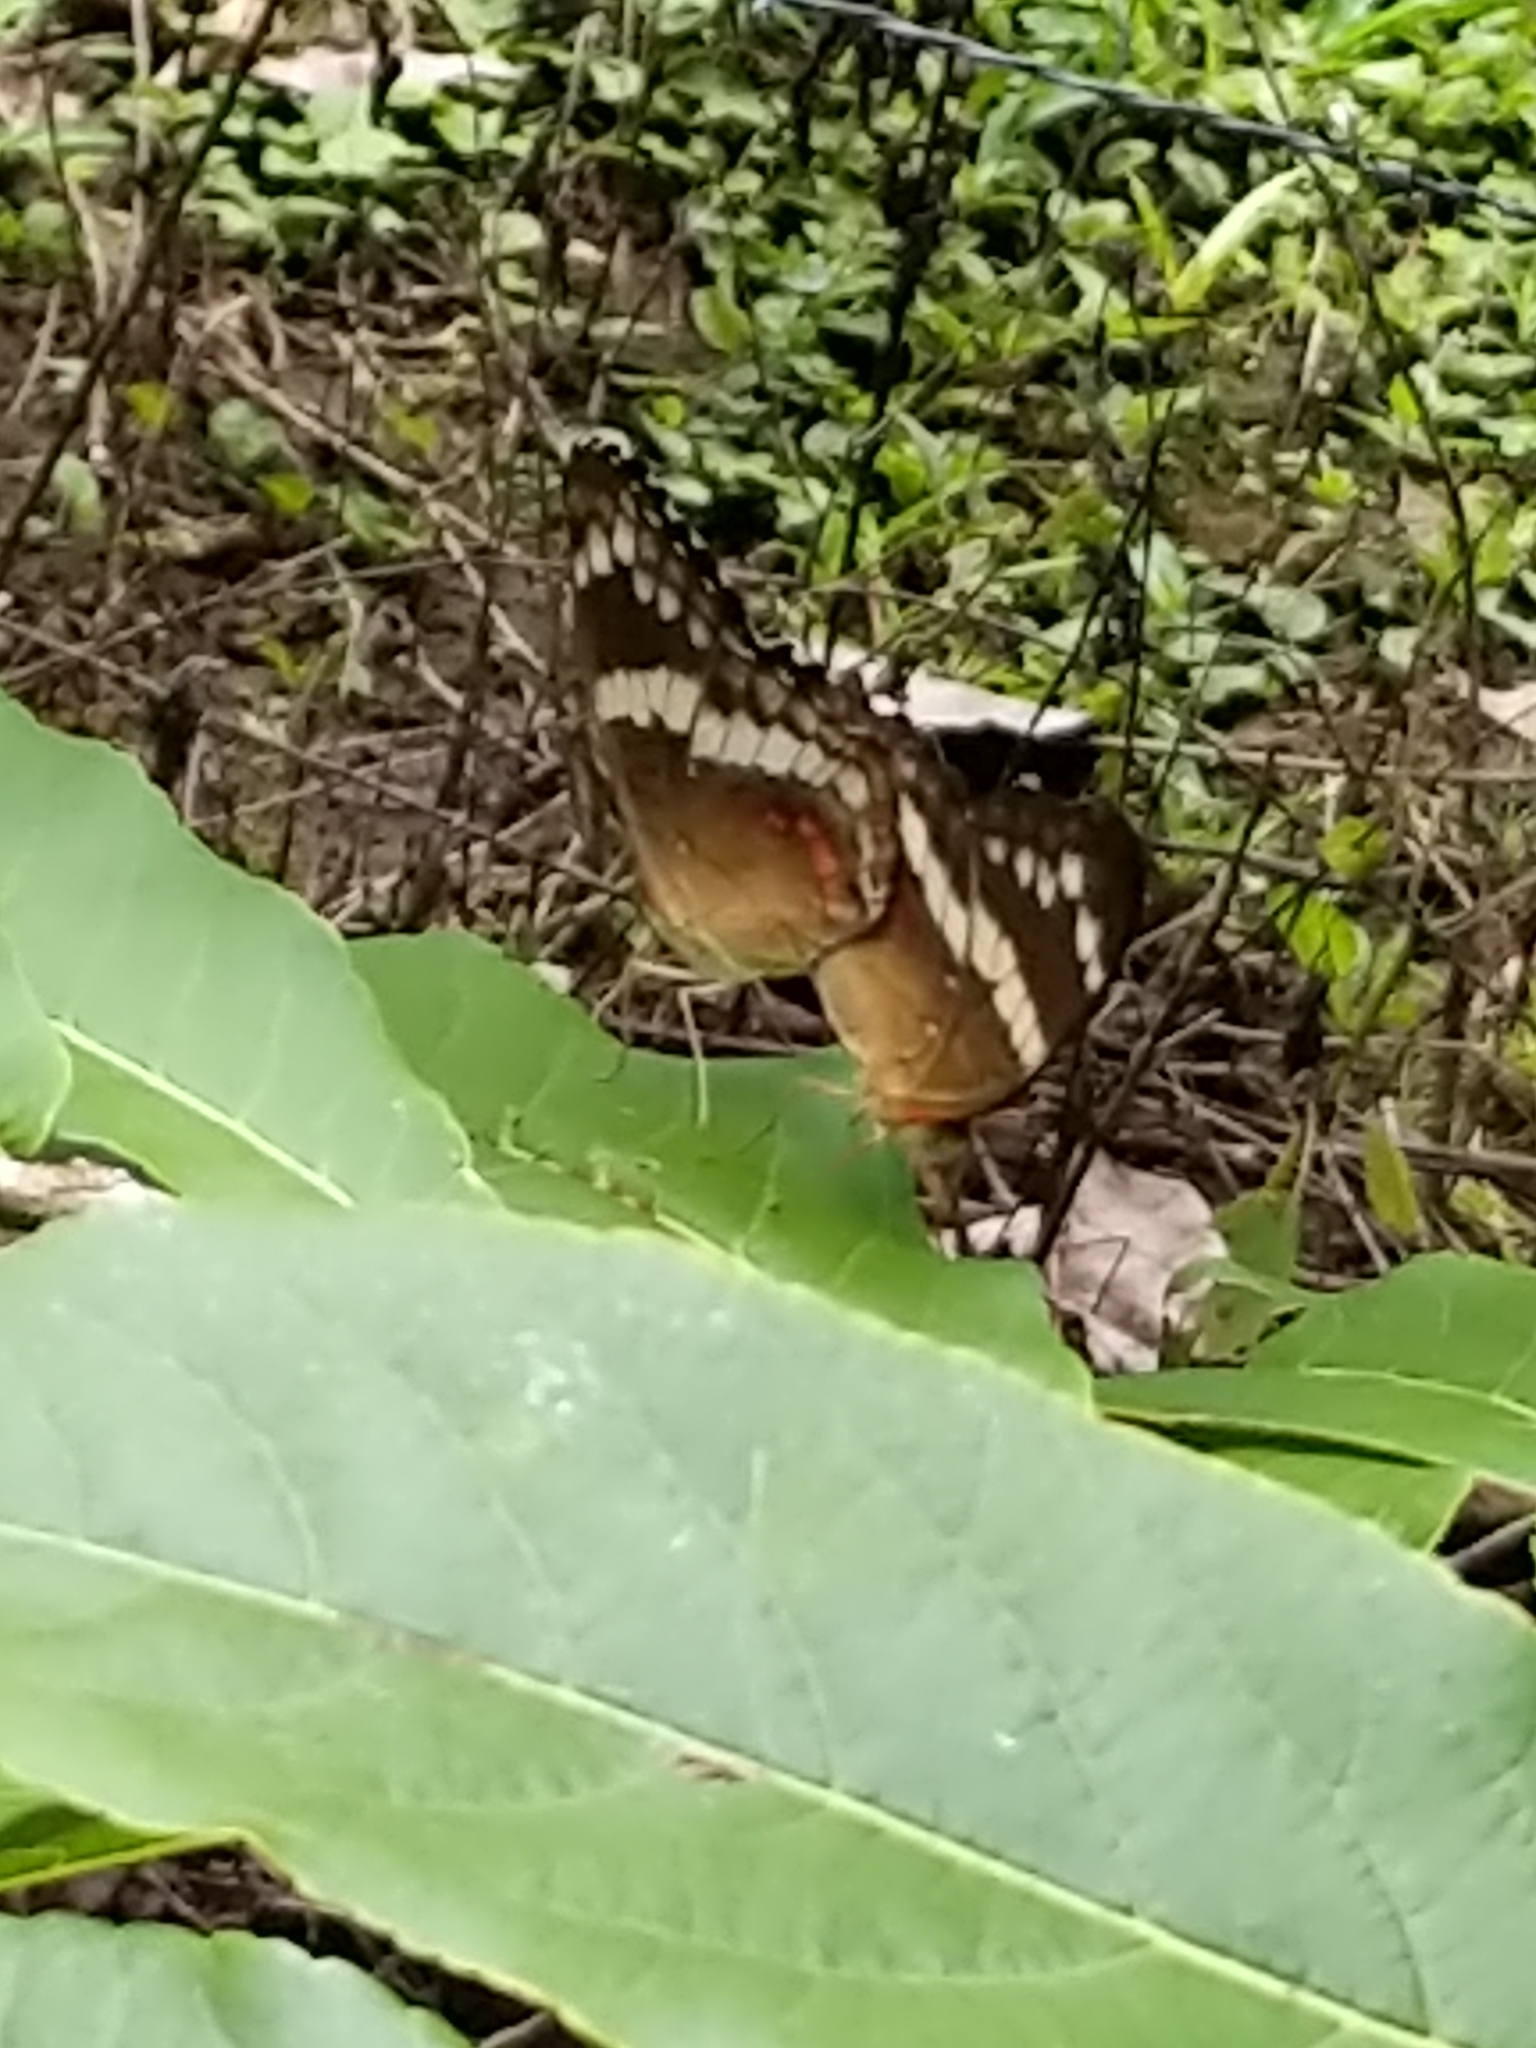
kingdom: Animalia
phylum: Arthropoda
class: Insecta
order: Lepidoptera
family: Nymphalidae
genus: Anartia
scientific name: Anartia fatima
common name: Banded peacock
